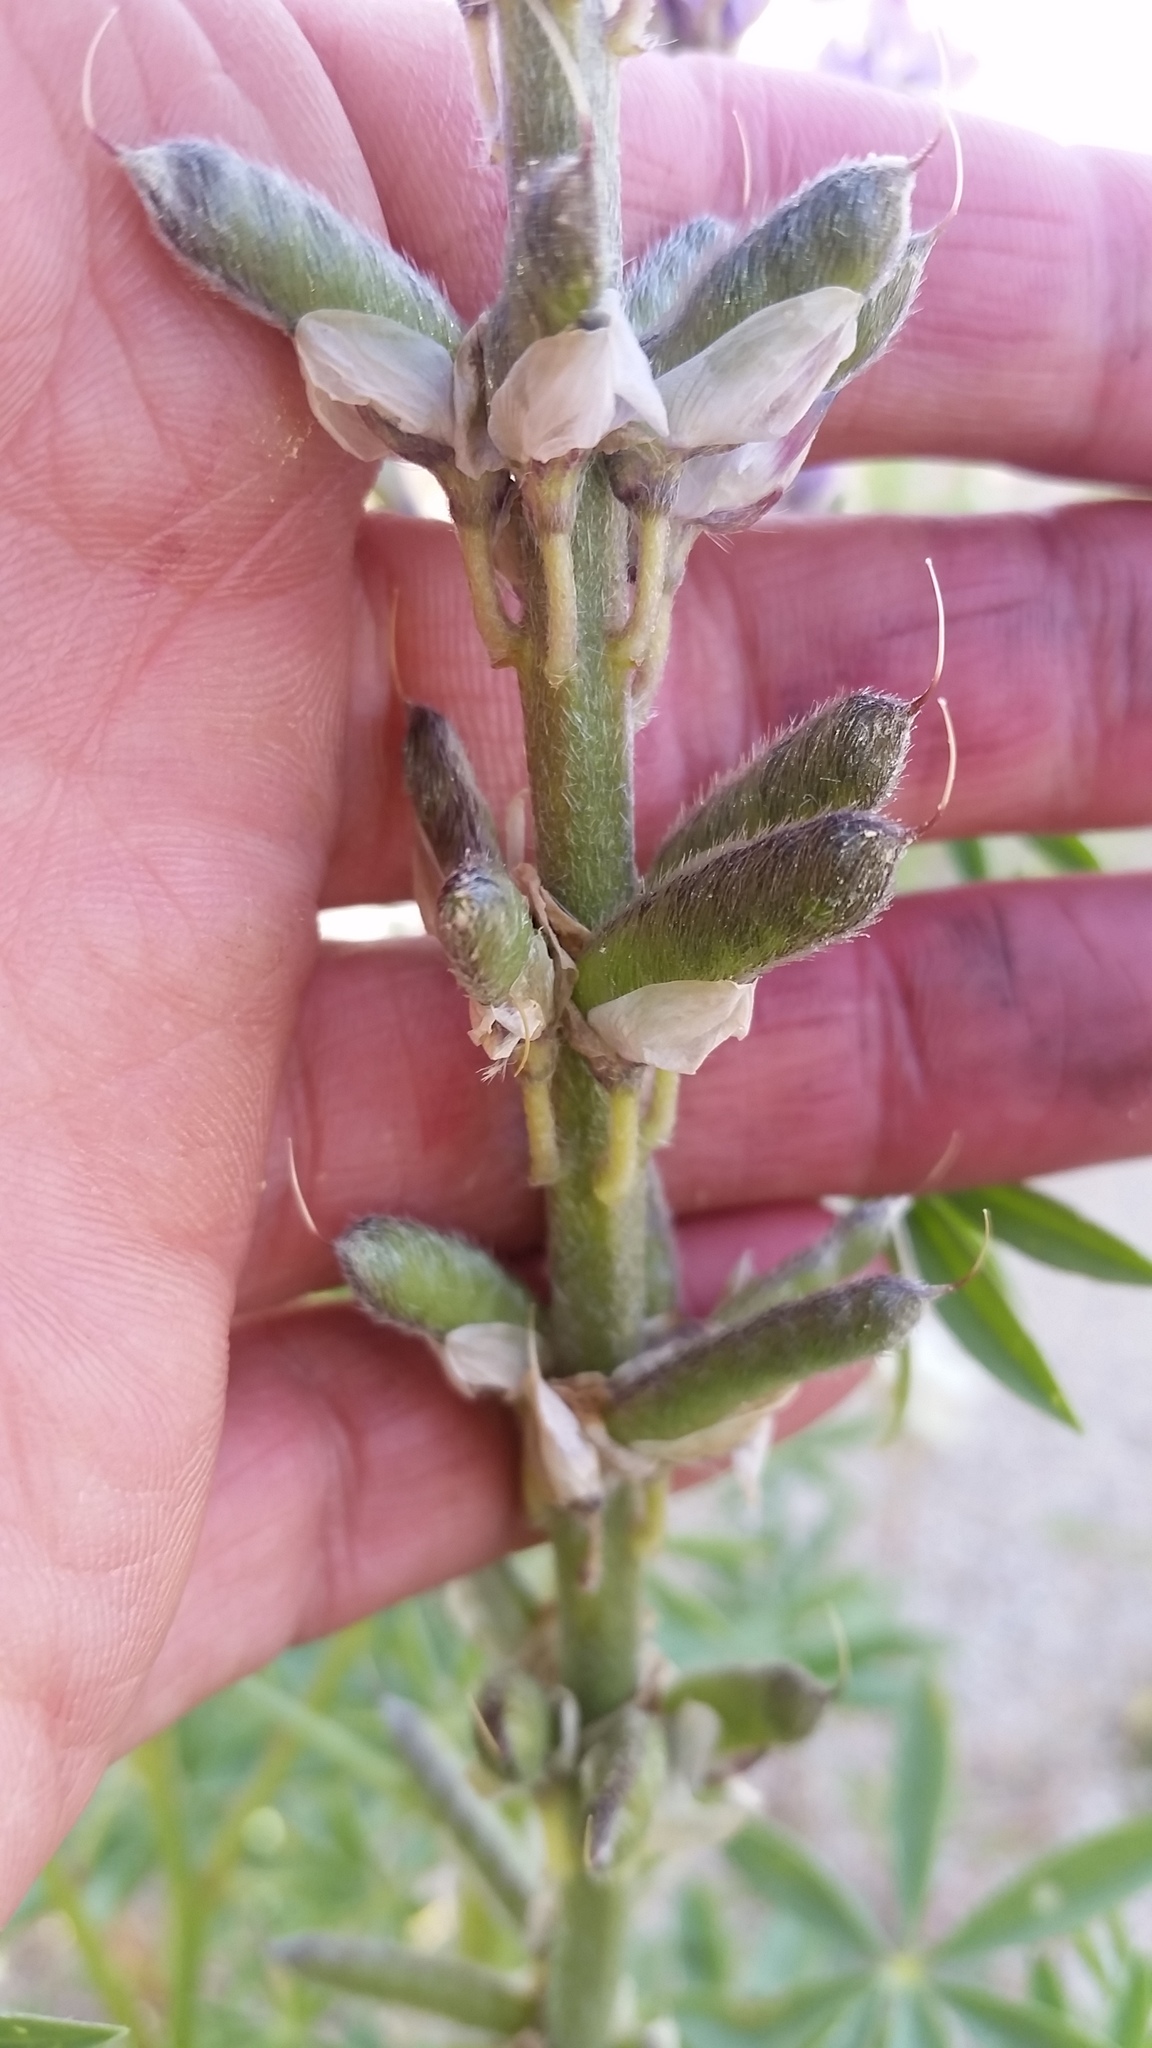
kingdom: Plantae
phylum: Tracheophyta
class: Magnoliopsida
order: Fabales
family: Fabaceae
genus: Lupinus
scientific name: Lupinus arizonicus
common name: Arizona lupine
